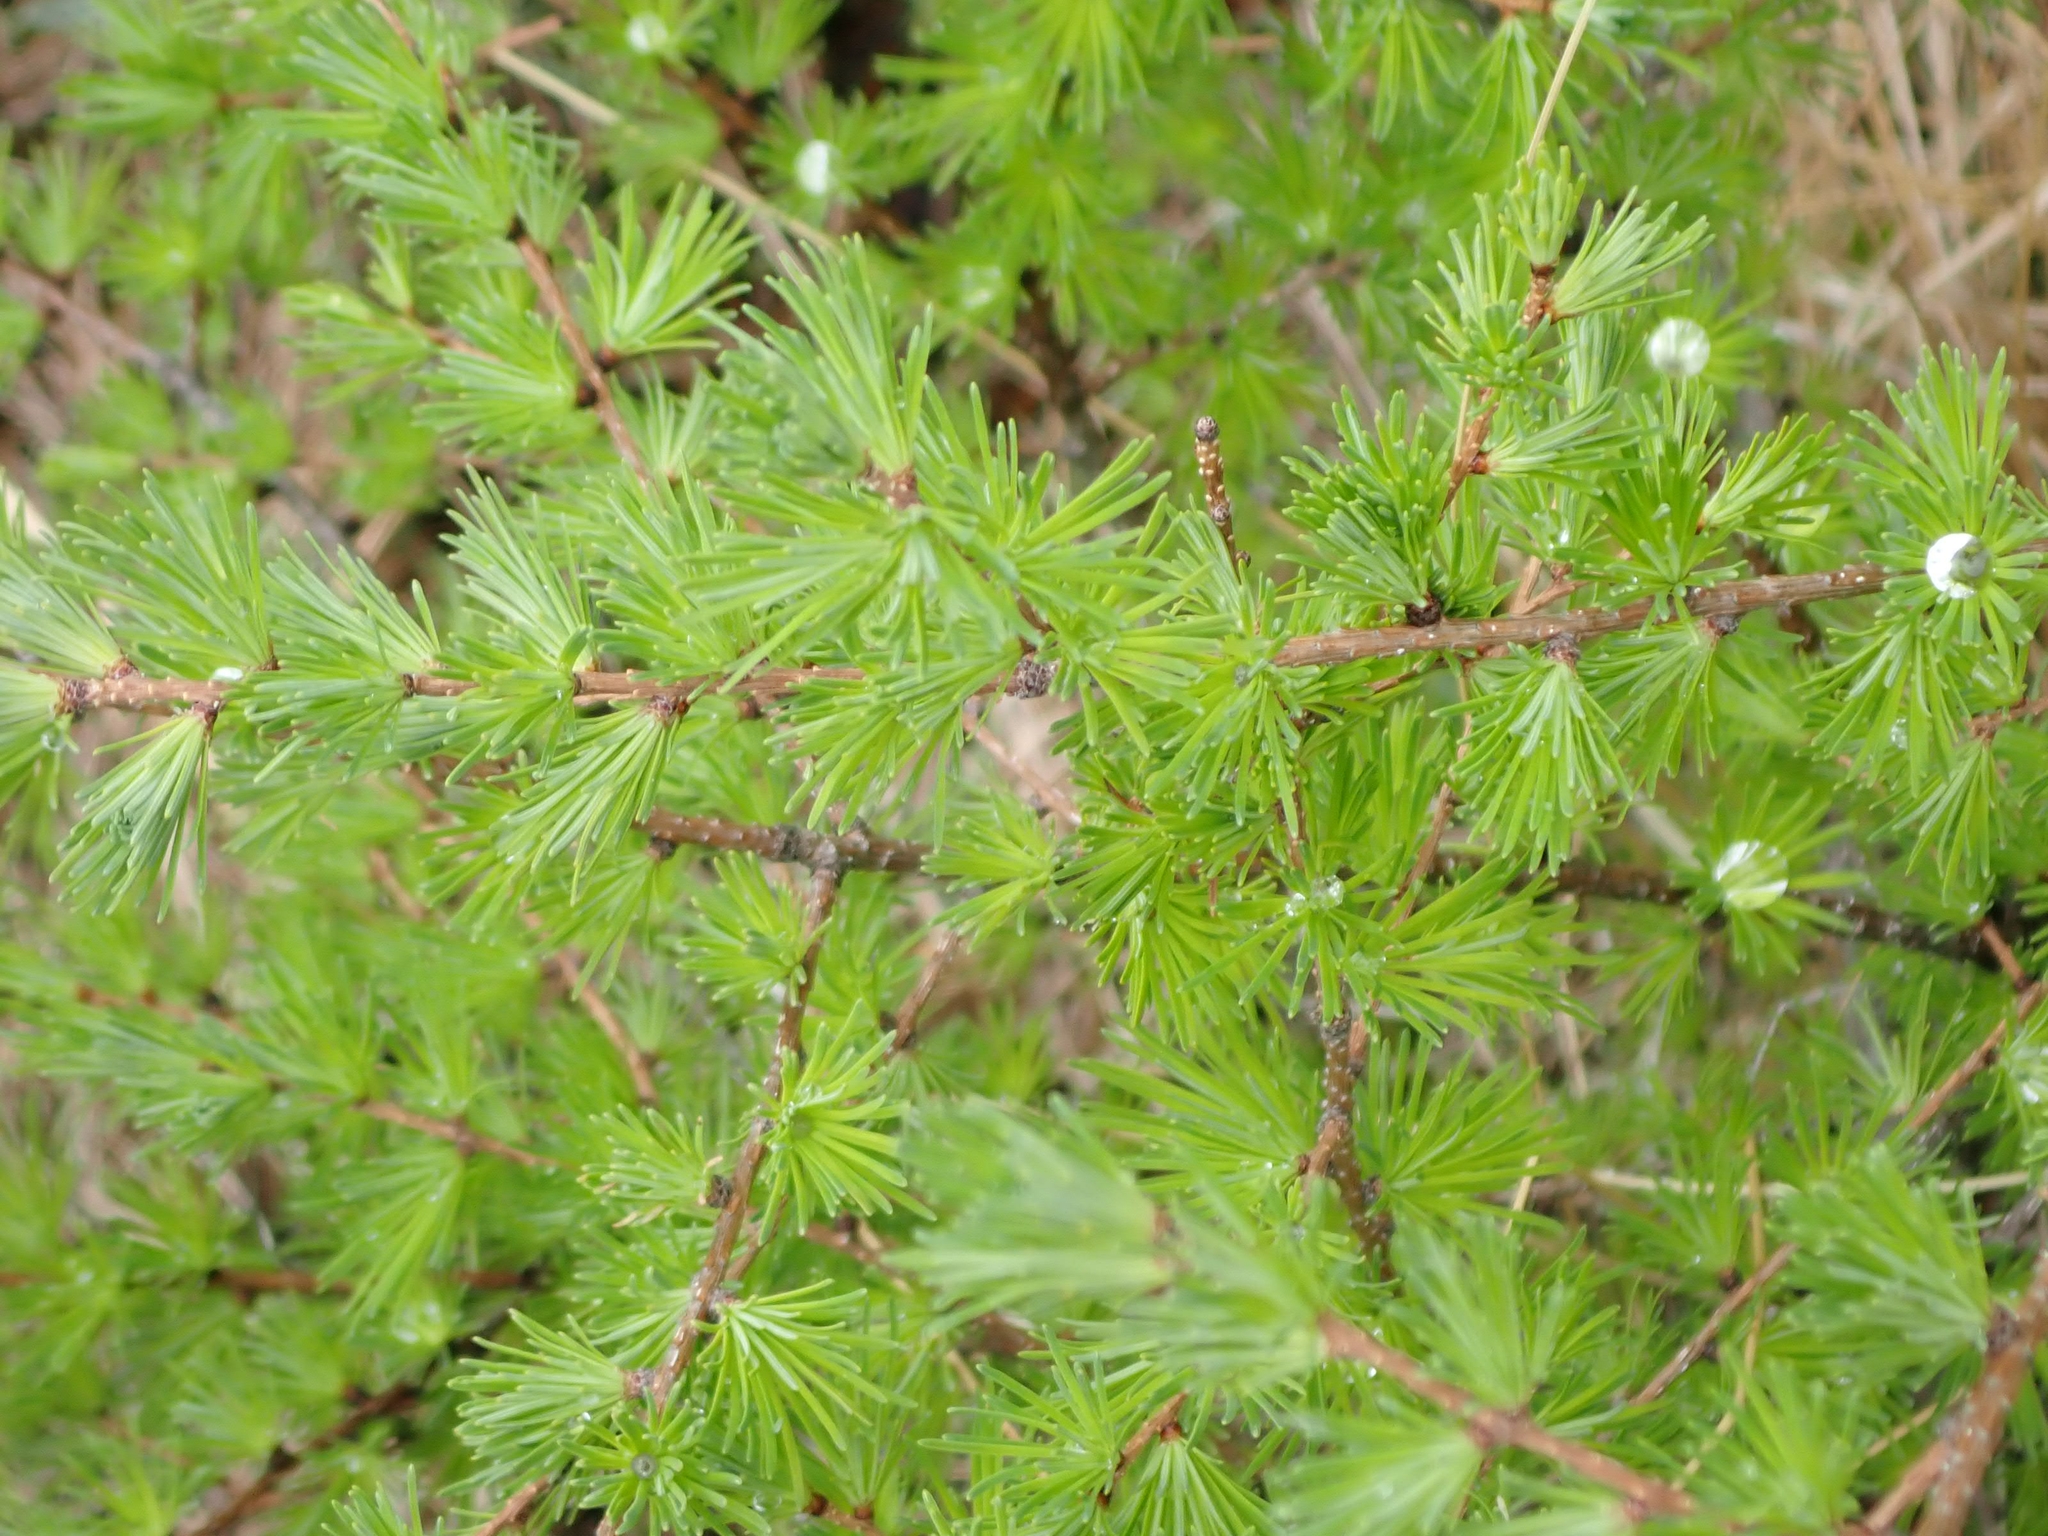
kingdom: Plantae
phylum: Tracheophyta
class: Pinopsida
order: Pinales
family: Pinaceae
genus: Larix
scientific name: Larix laricina
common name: American larch
